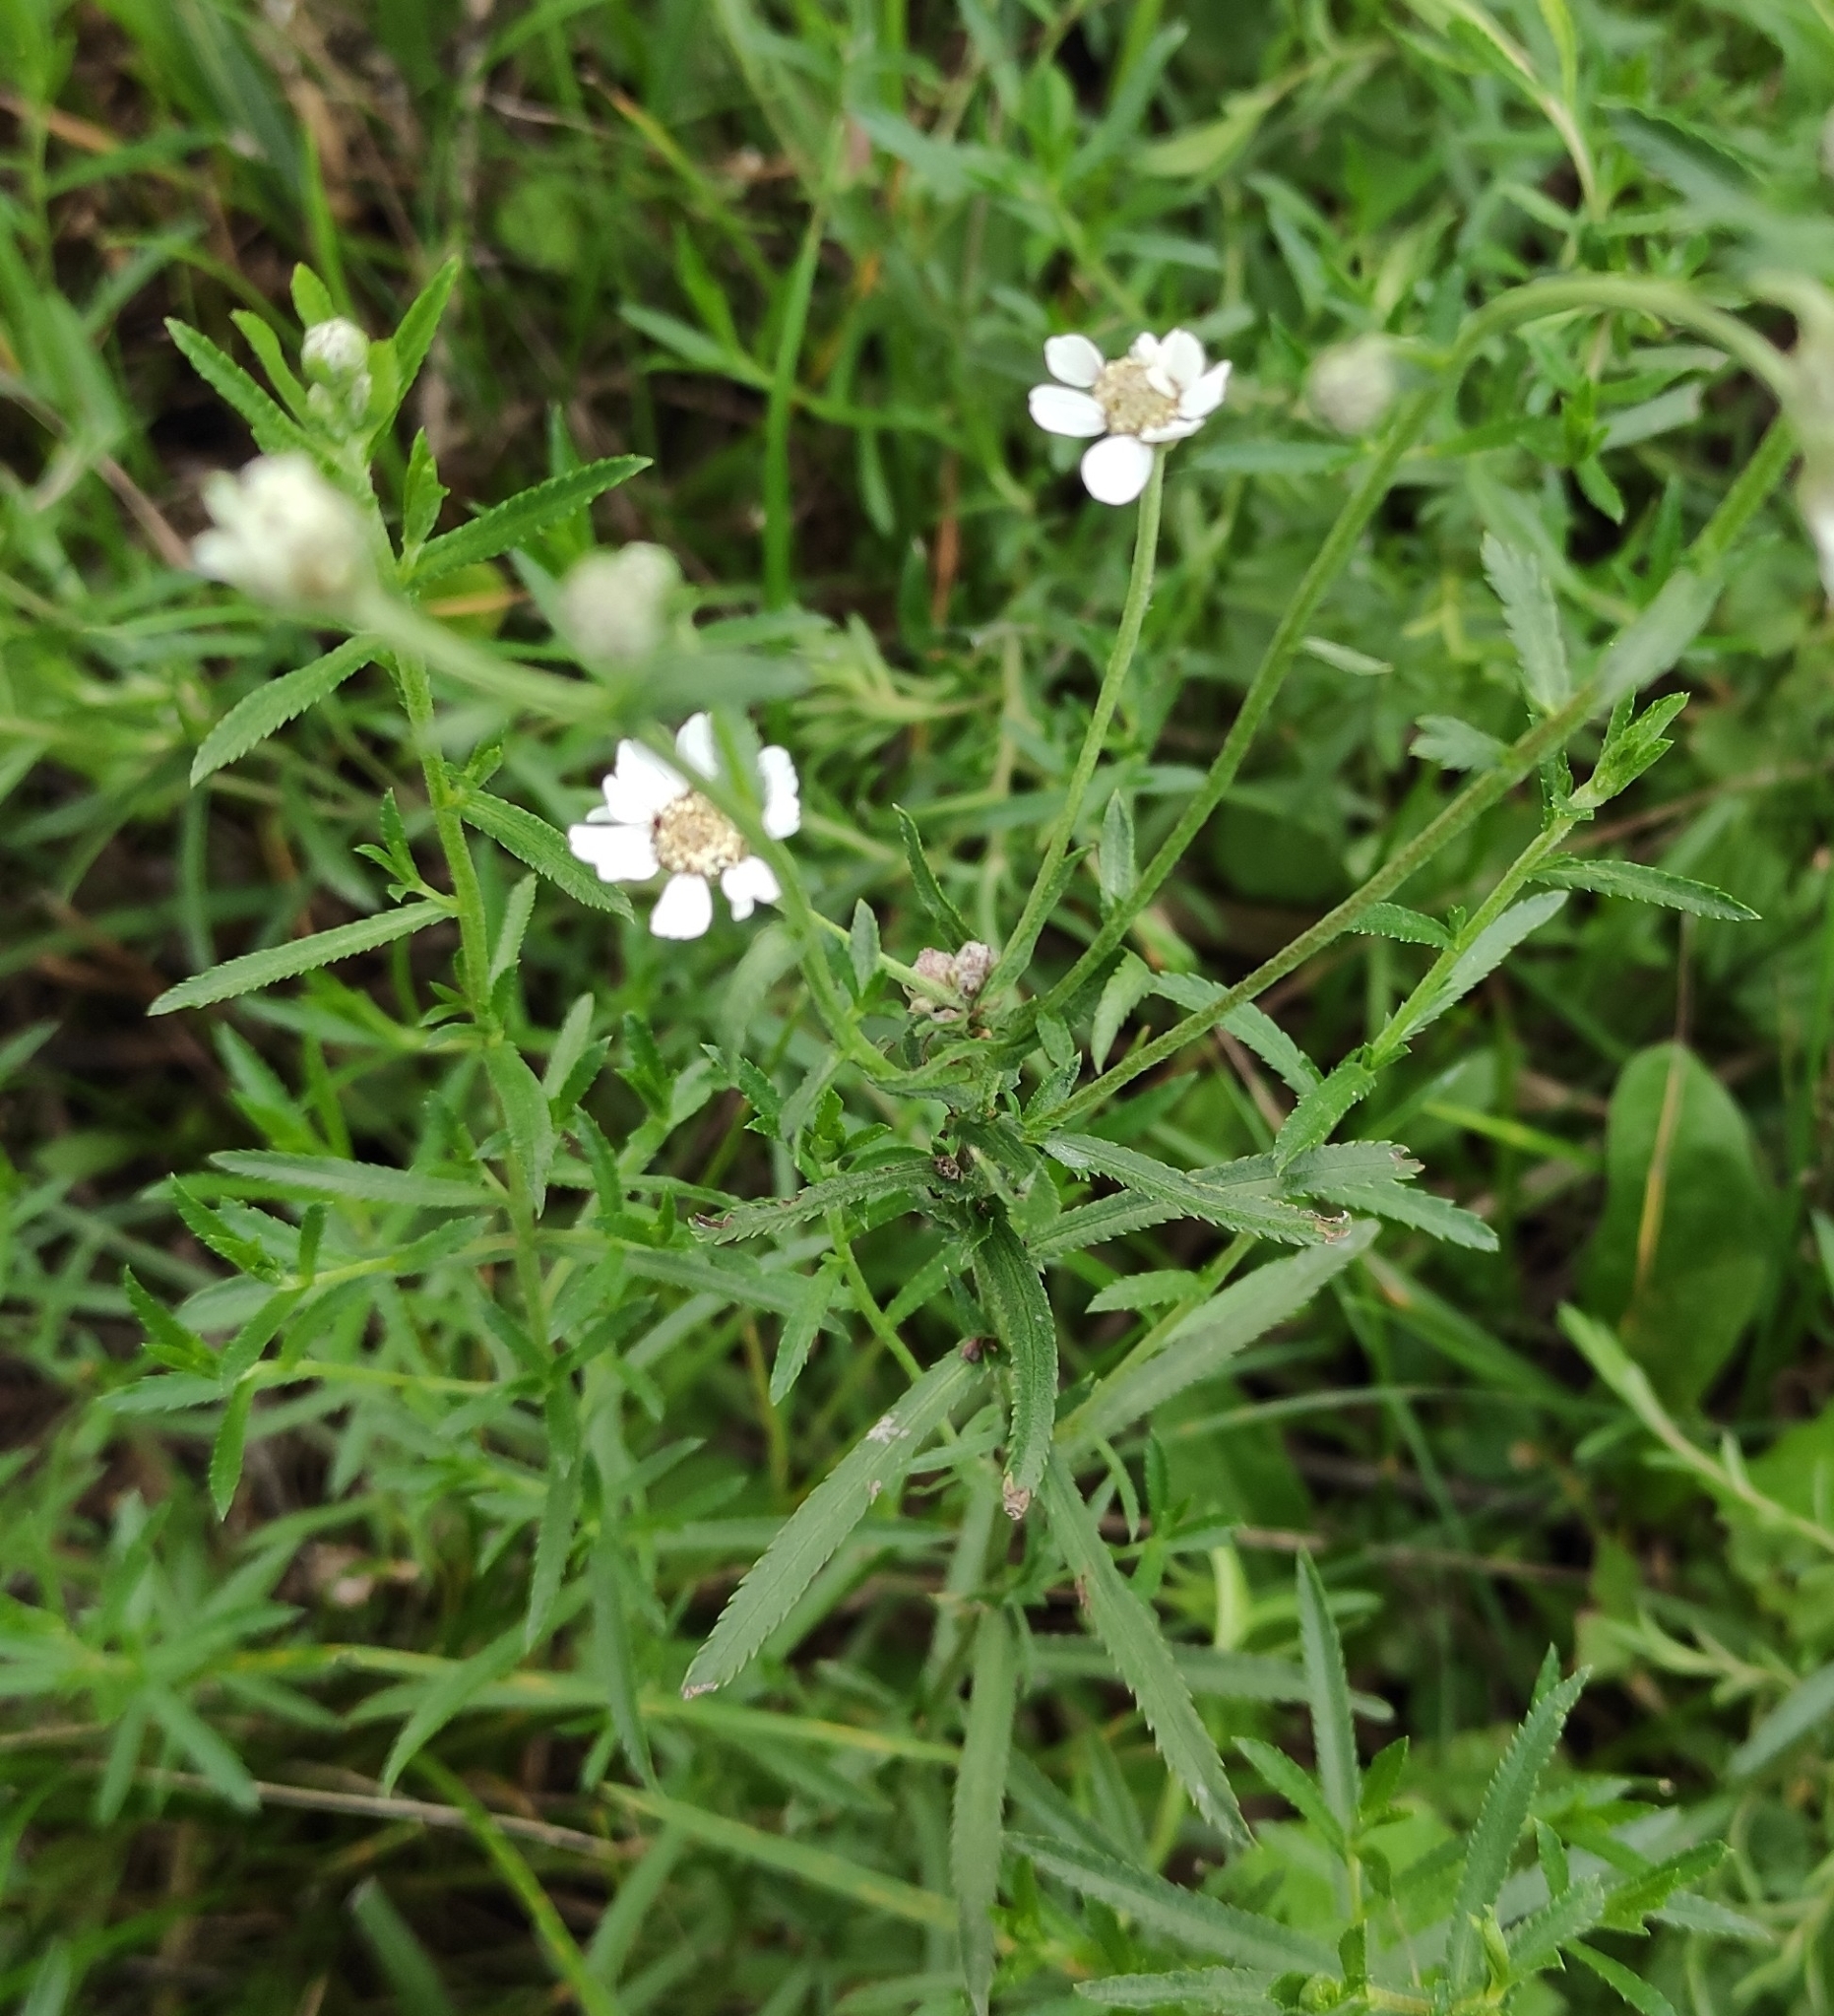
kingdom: Plantae
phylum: Tracheophyta
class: Magnoliopsida
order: Asterales
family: Asteraceae
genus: Achillea
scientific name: Achillea ptarmica
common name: Sneezeweed
